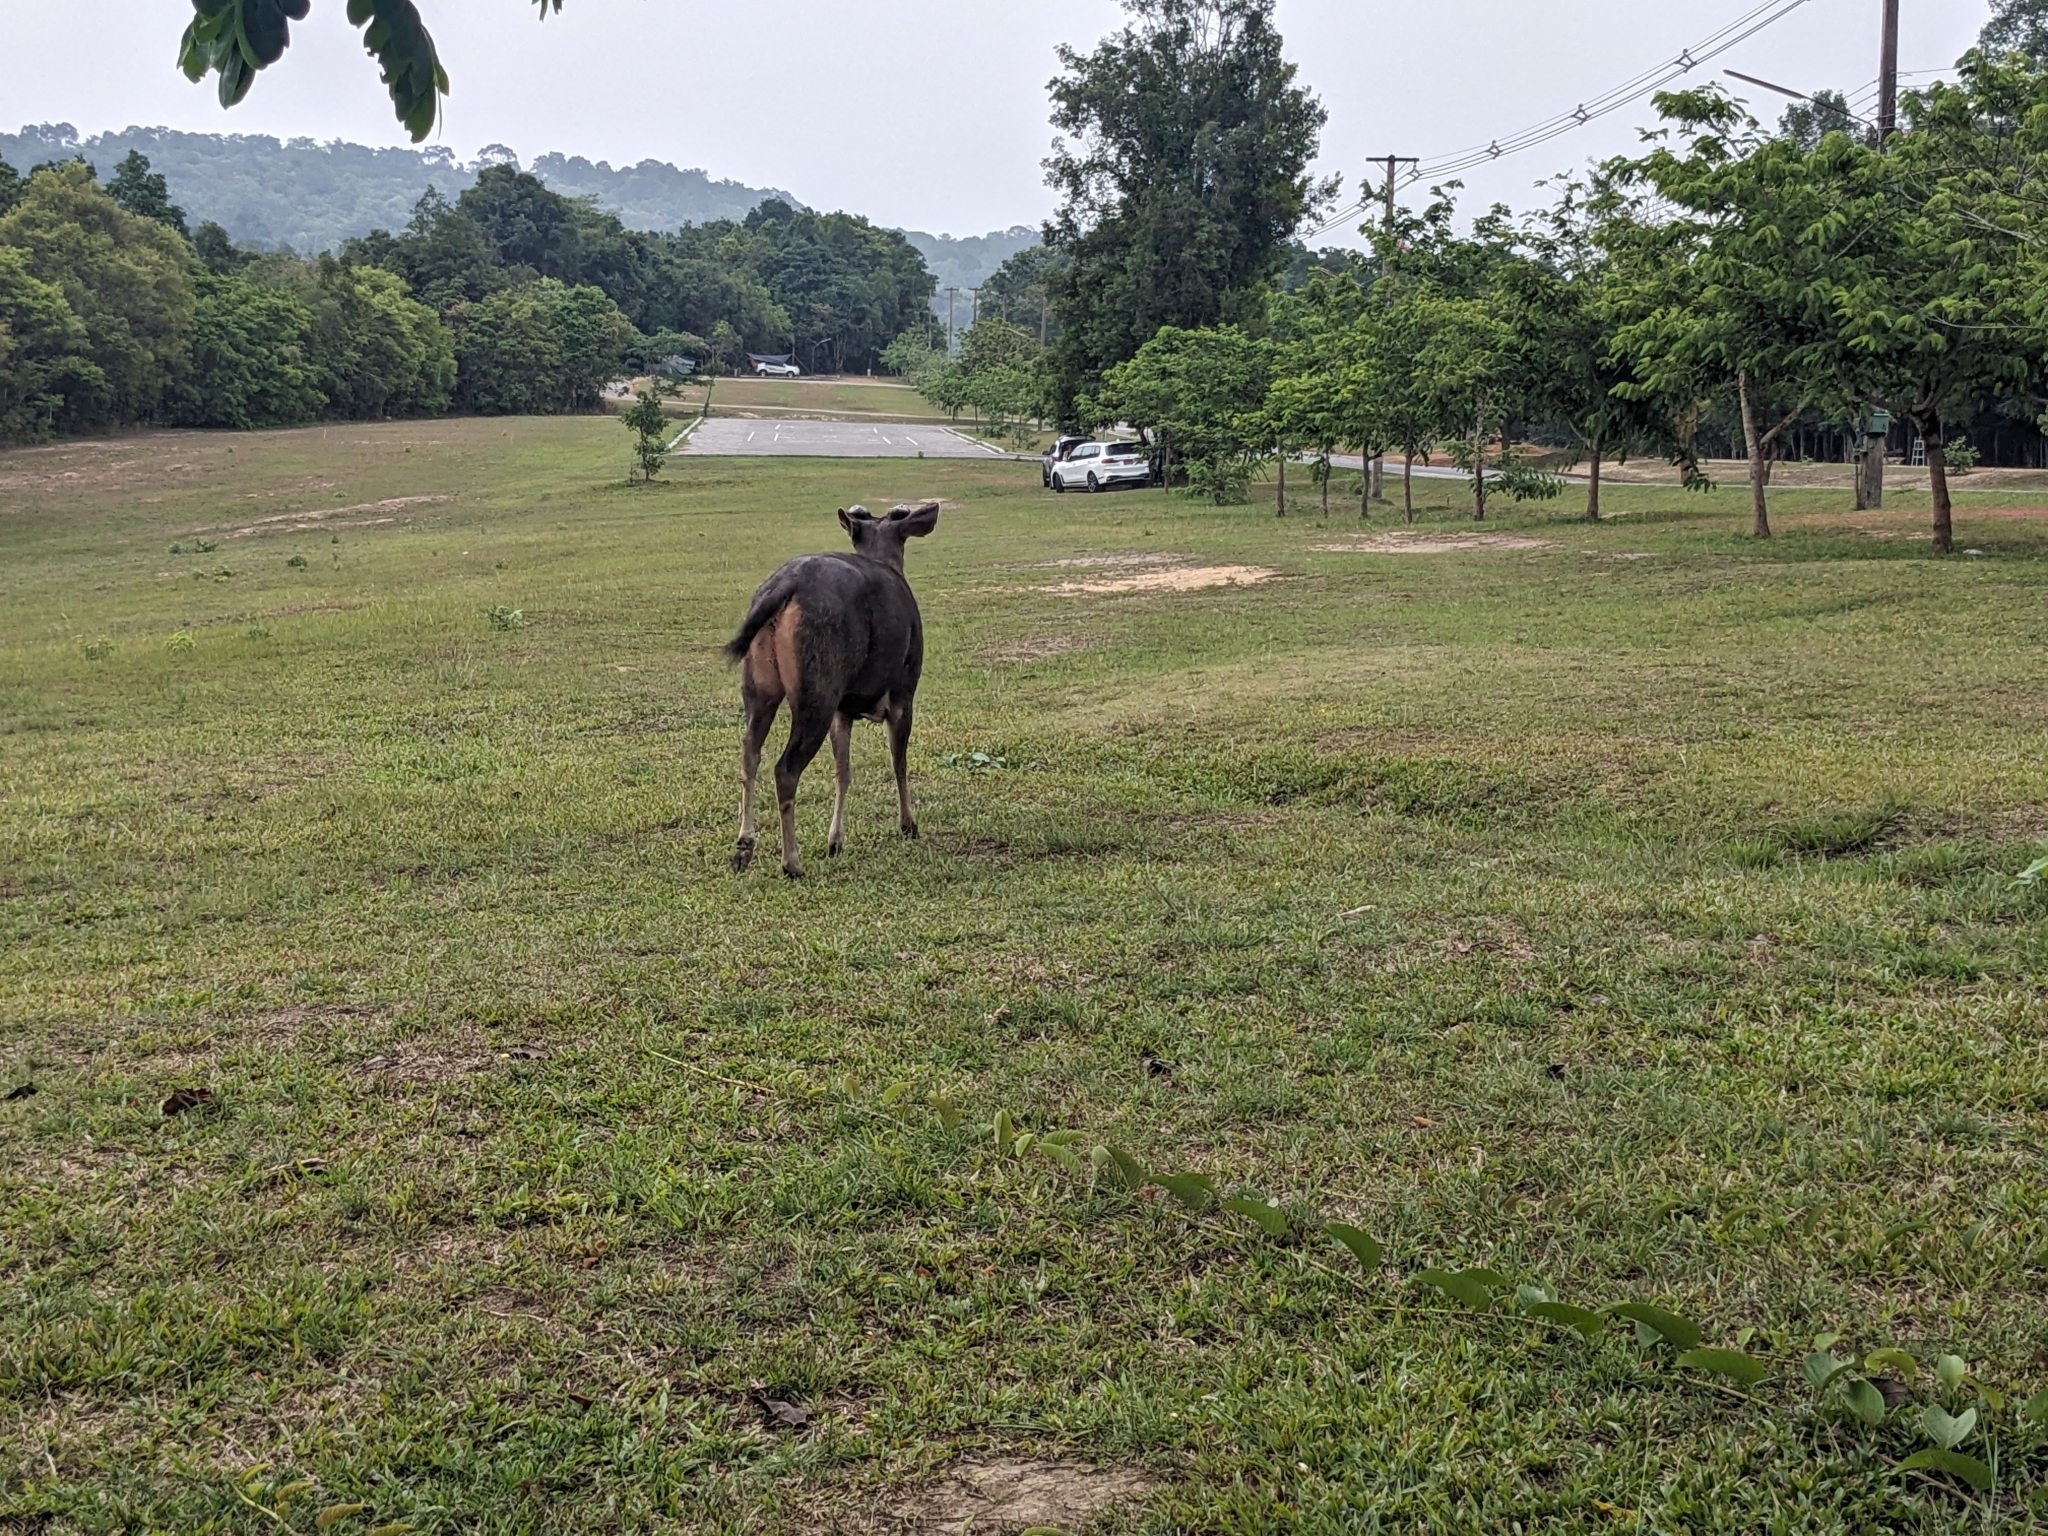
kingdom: Animalia
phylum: Chordata
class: Mammalia
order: Artiodactyla
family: Cervidae
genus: Rusa
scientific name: Rusa unicolor
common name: Sambar
